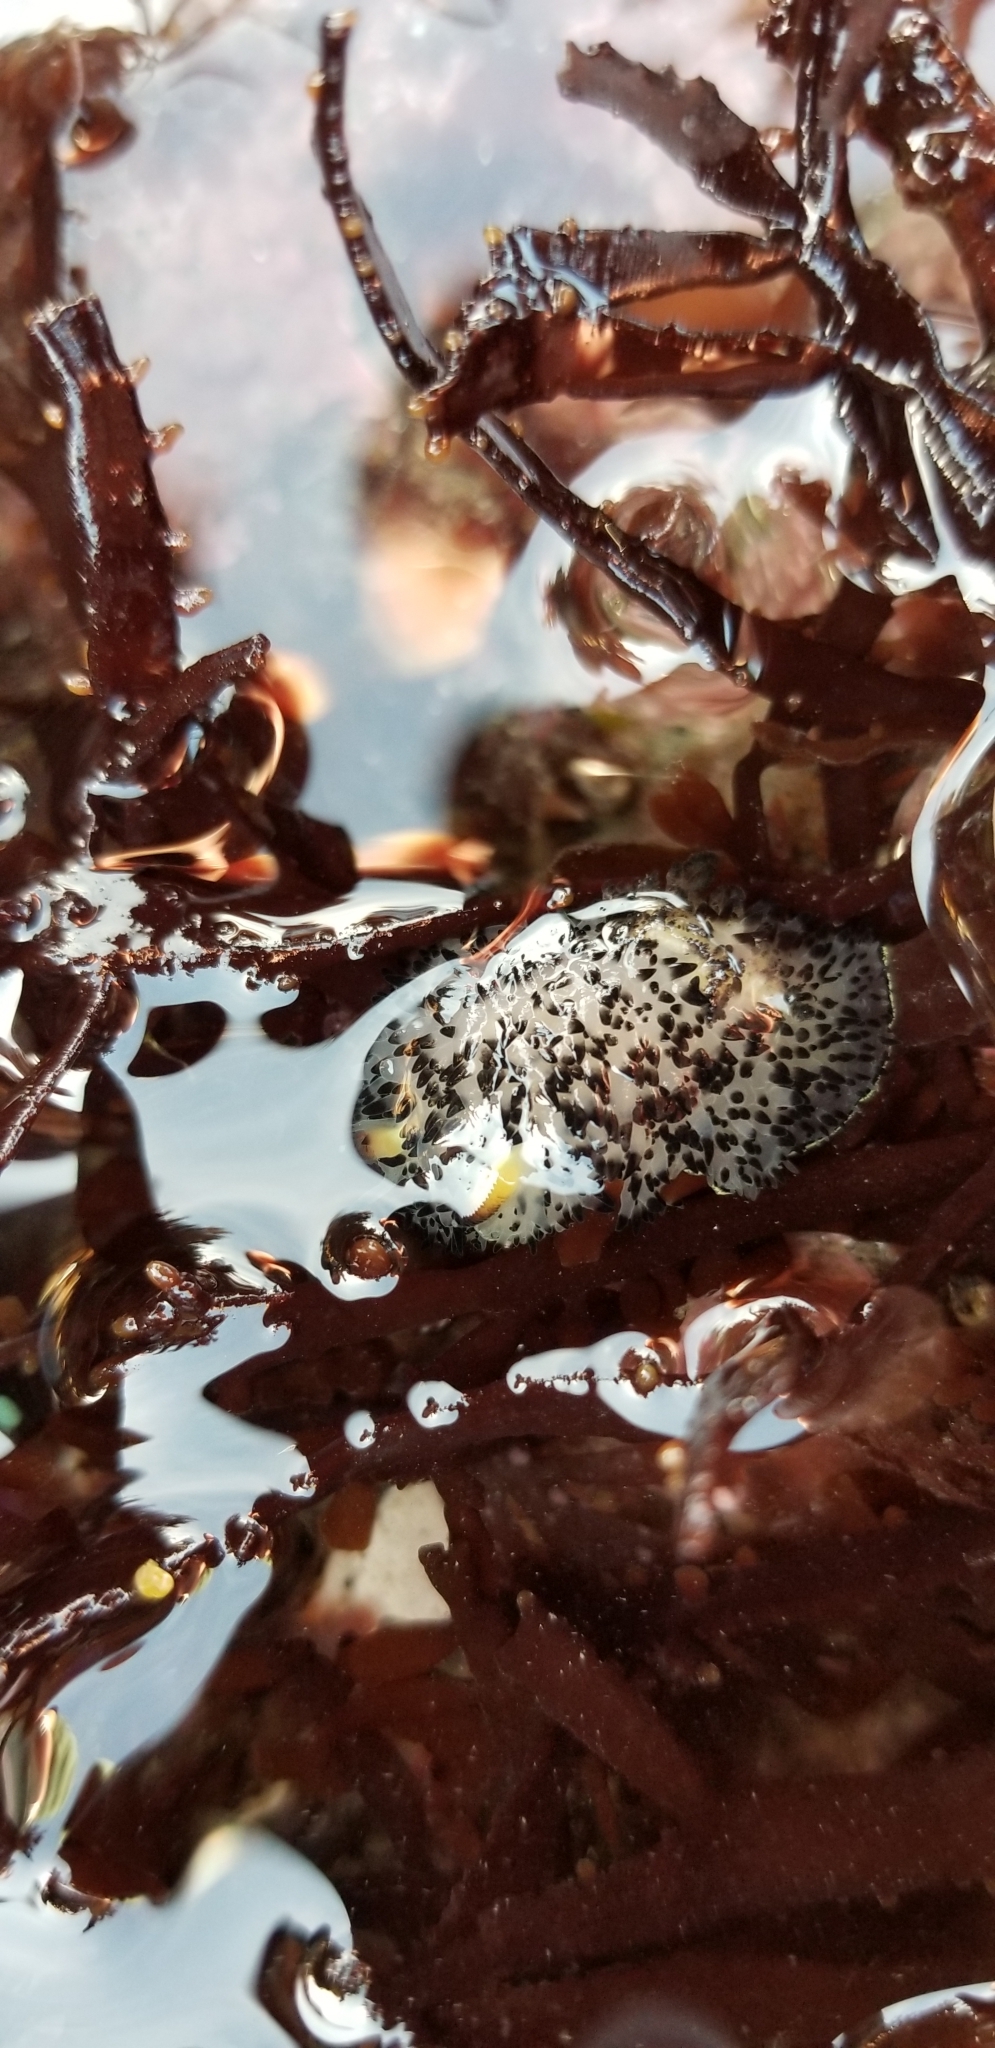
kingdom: Animalia
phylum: Mollusca
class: Gastropoda
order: Nudibranchia
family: Onchidorididae
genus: Acanthodoris
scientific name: Acanthodoris rhodoceras
